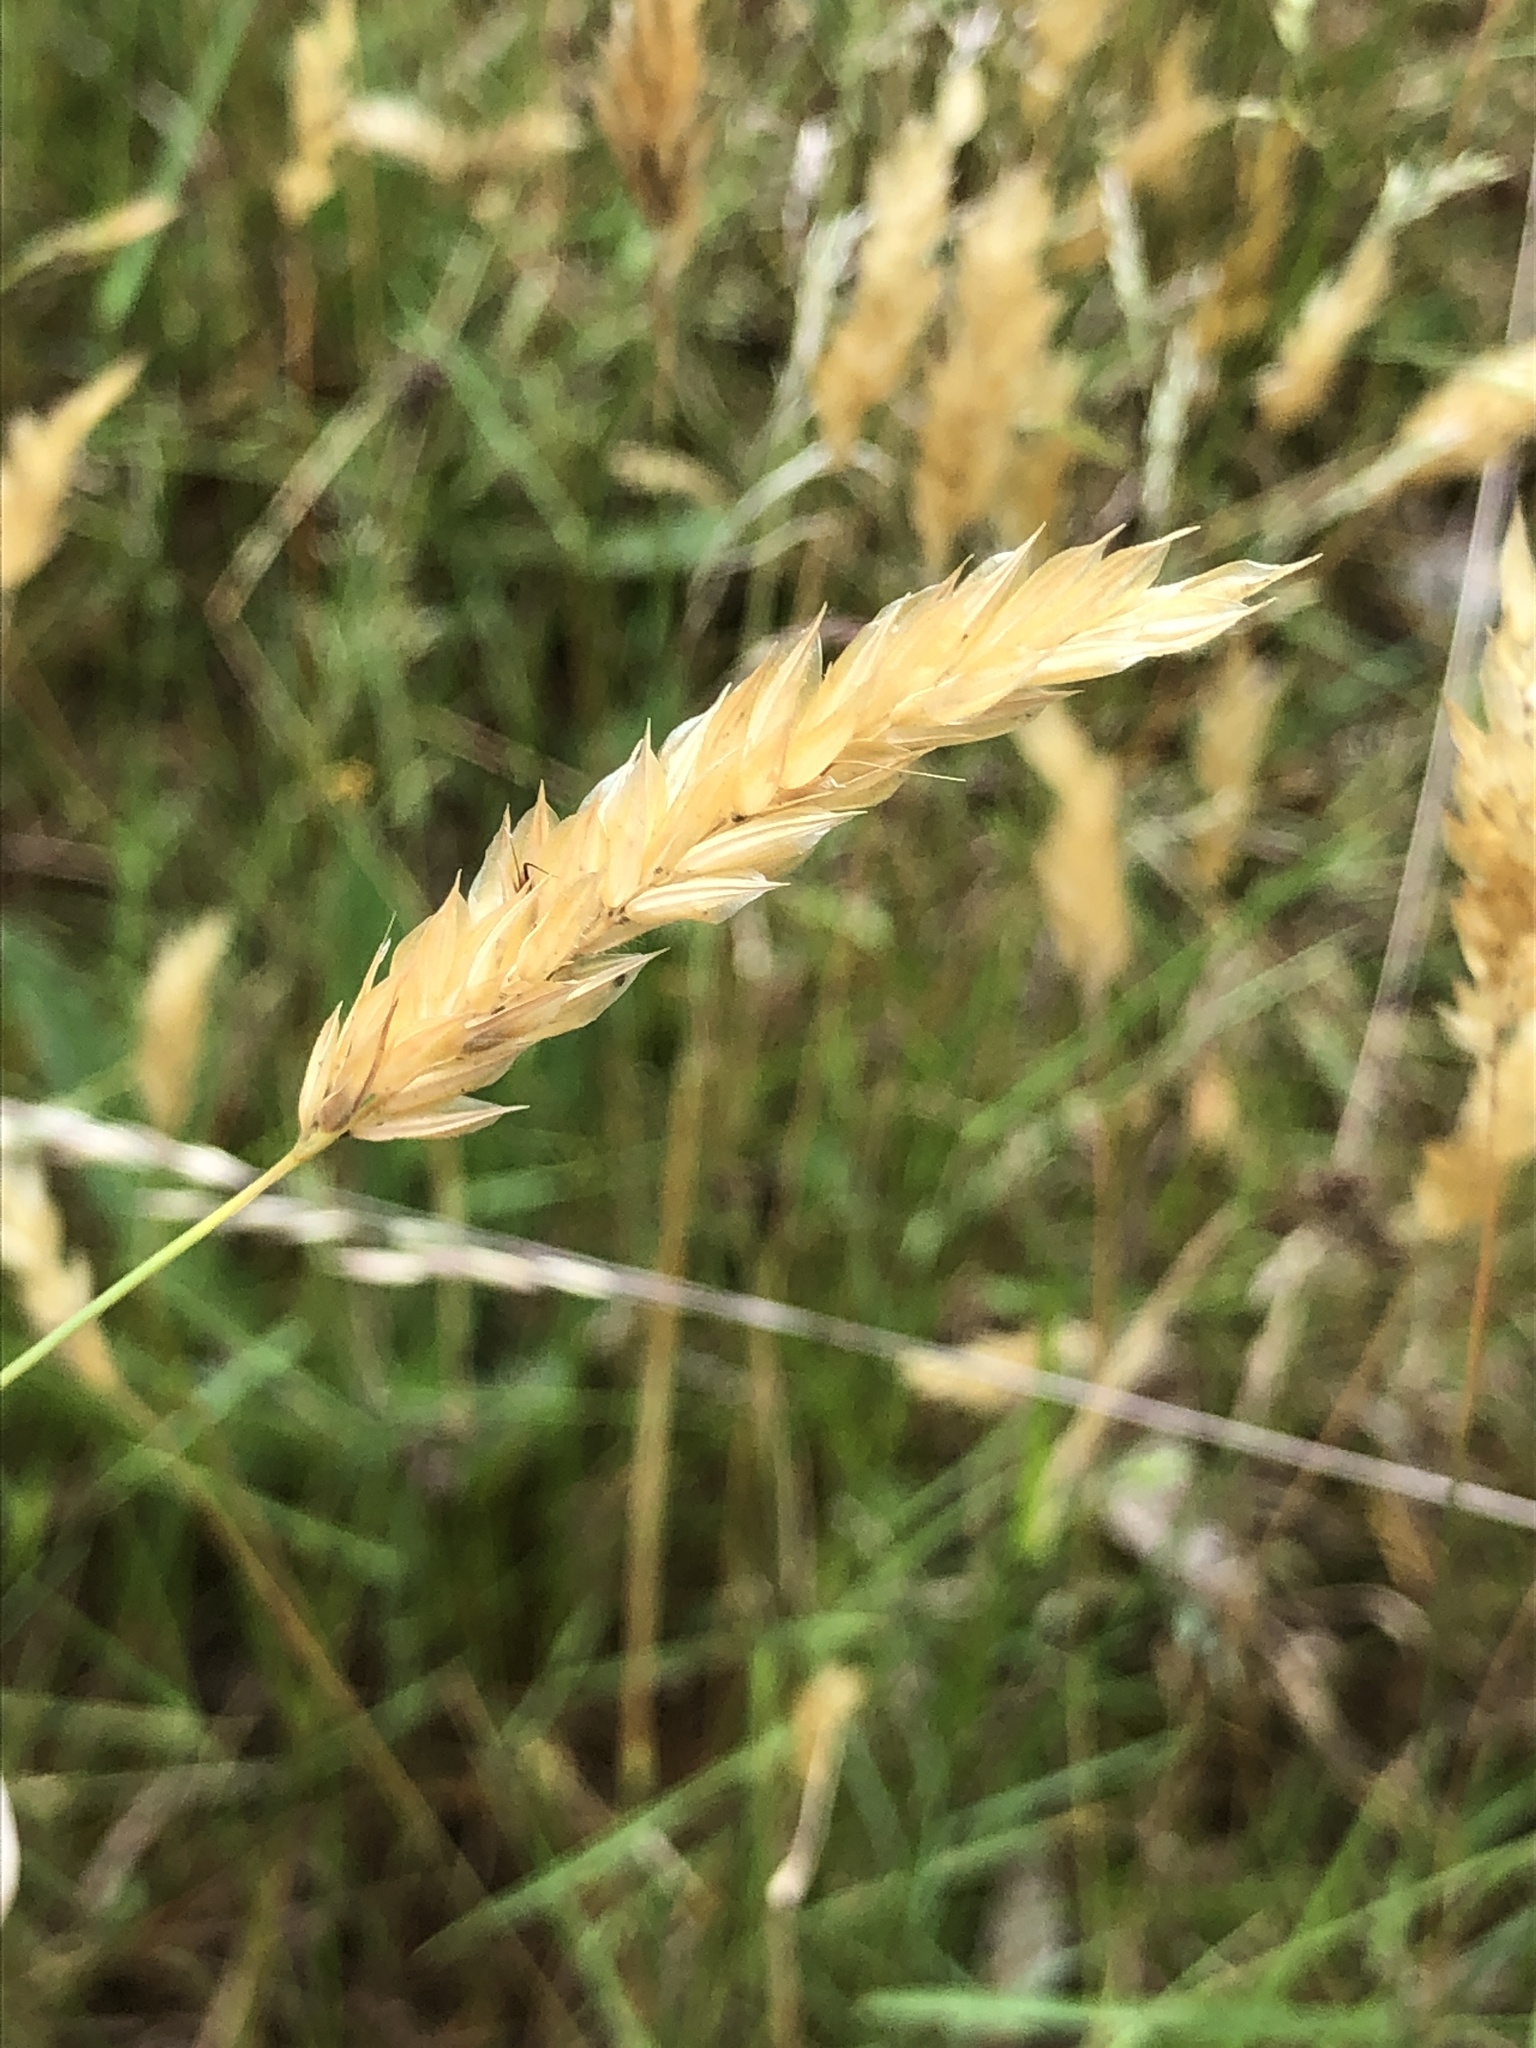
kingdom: Plantae
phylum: Tracheophyta
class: Liliopsida
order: Poales
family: Poaceae
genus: Anthoxanthum
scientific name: Anthoxanthum odoratum
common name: Sweet vernalgrass
